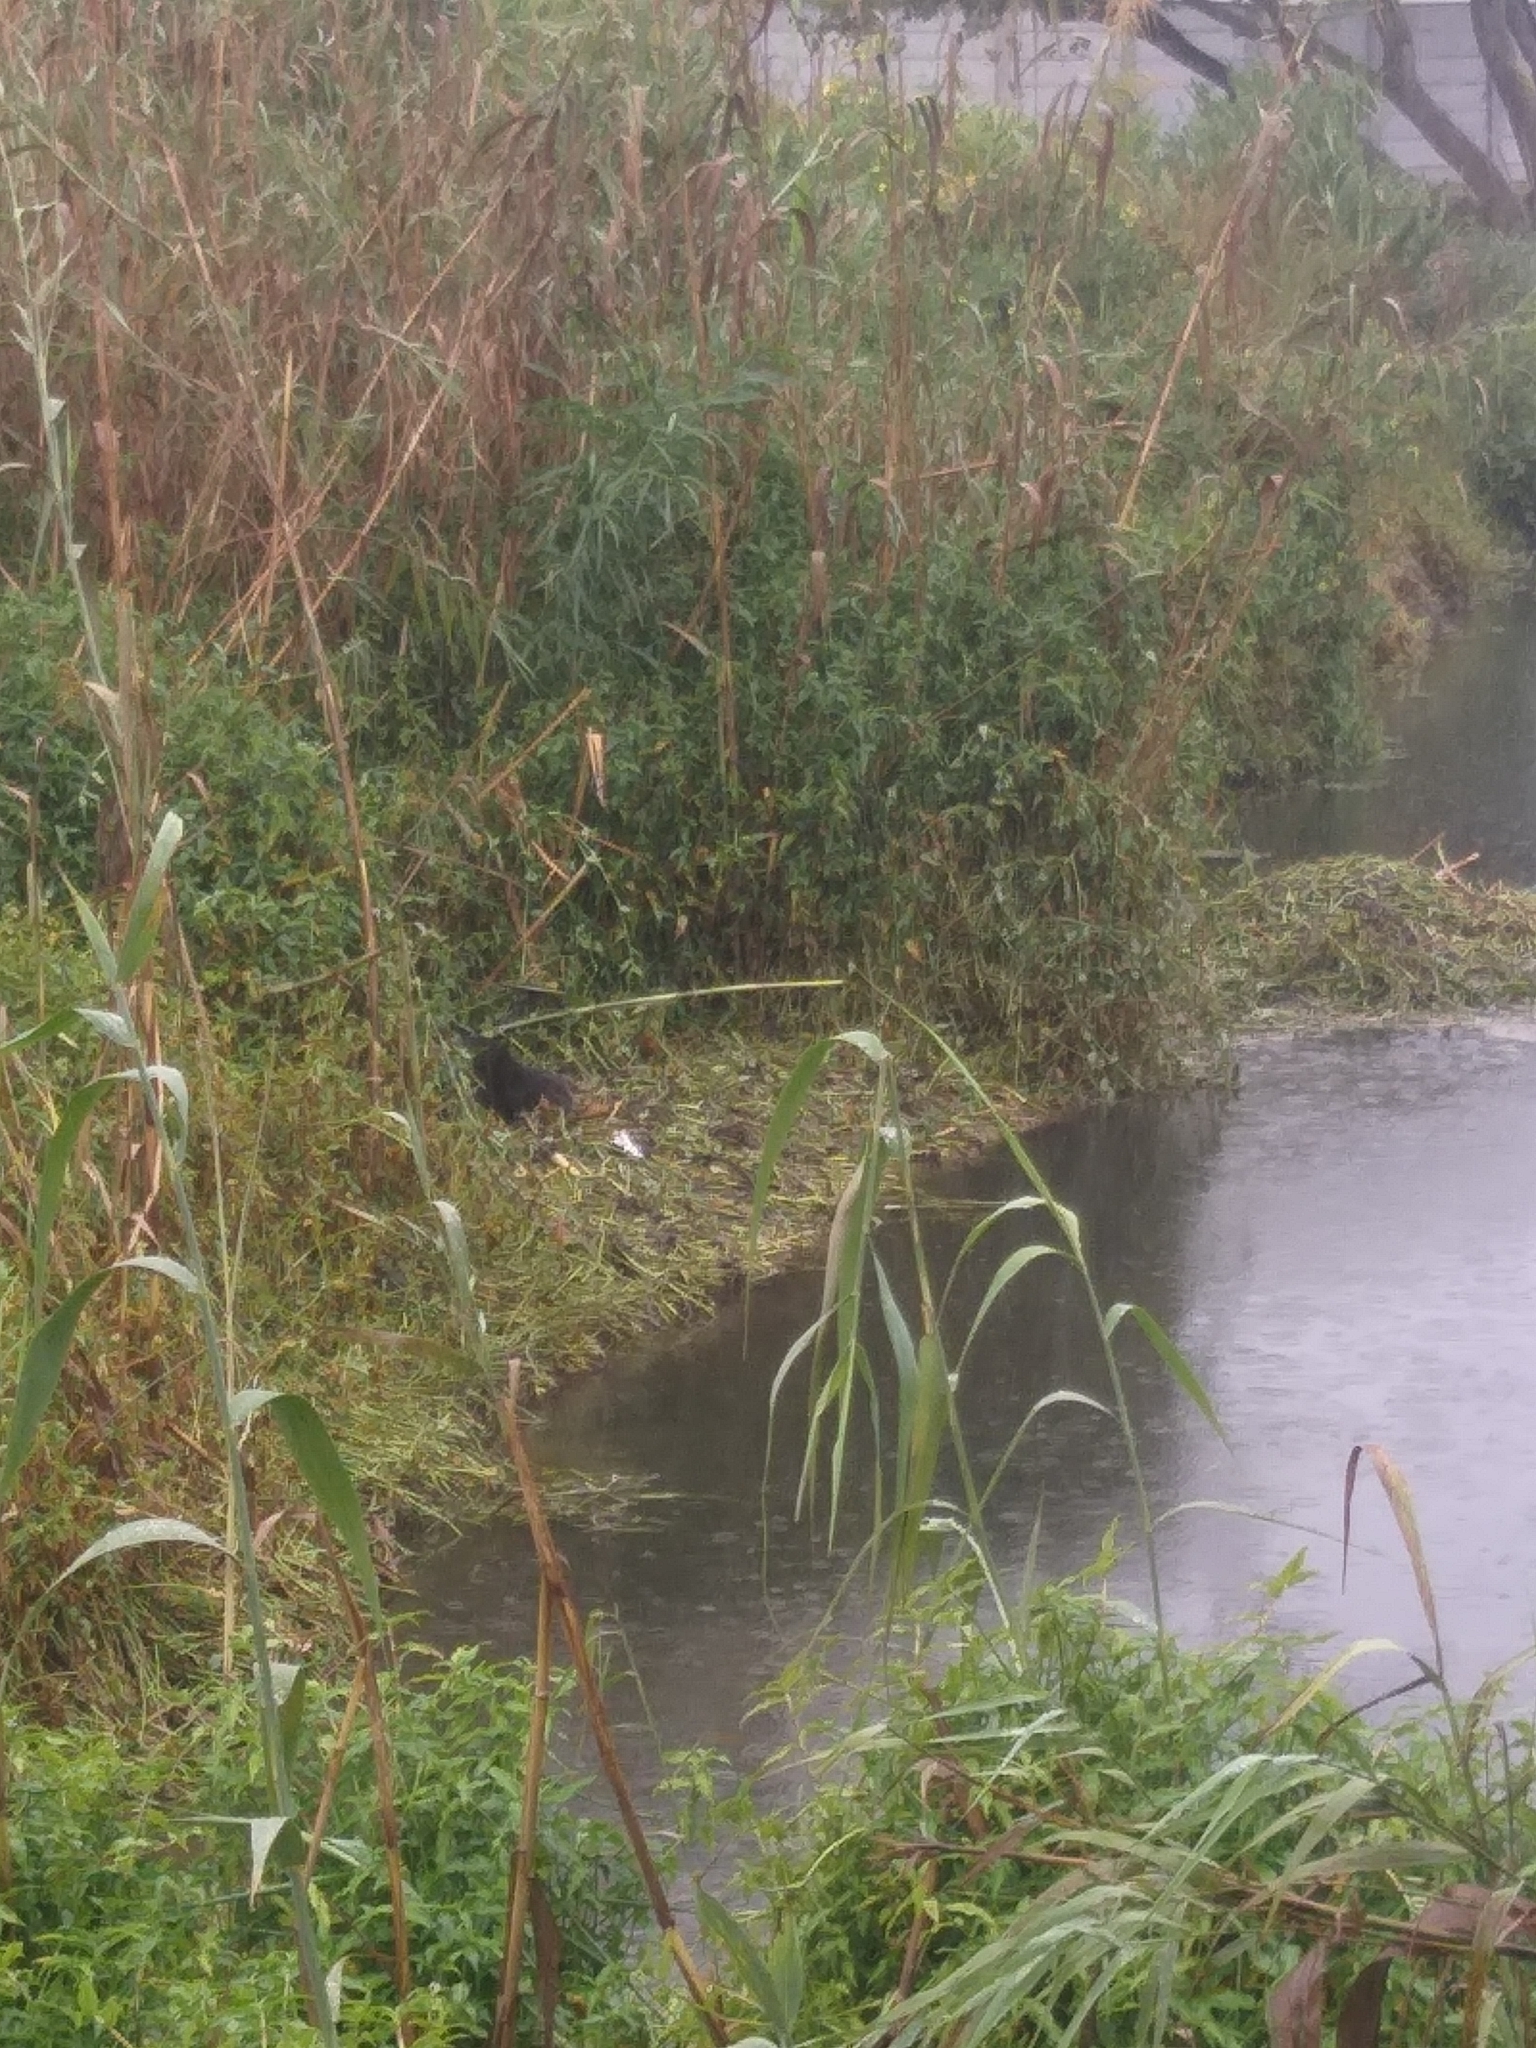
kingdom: Animalia
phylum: Chordata
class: Mammalia
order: Carnivora
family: Herpestidae
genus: Atilax
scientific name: Atilax paludinosus
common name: Marsh mongoose
